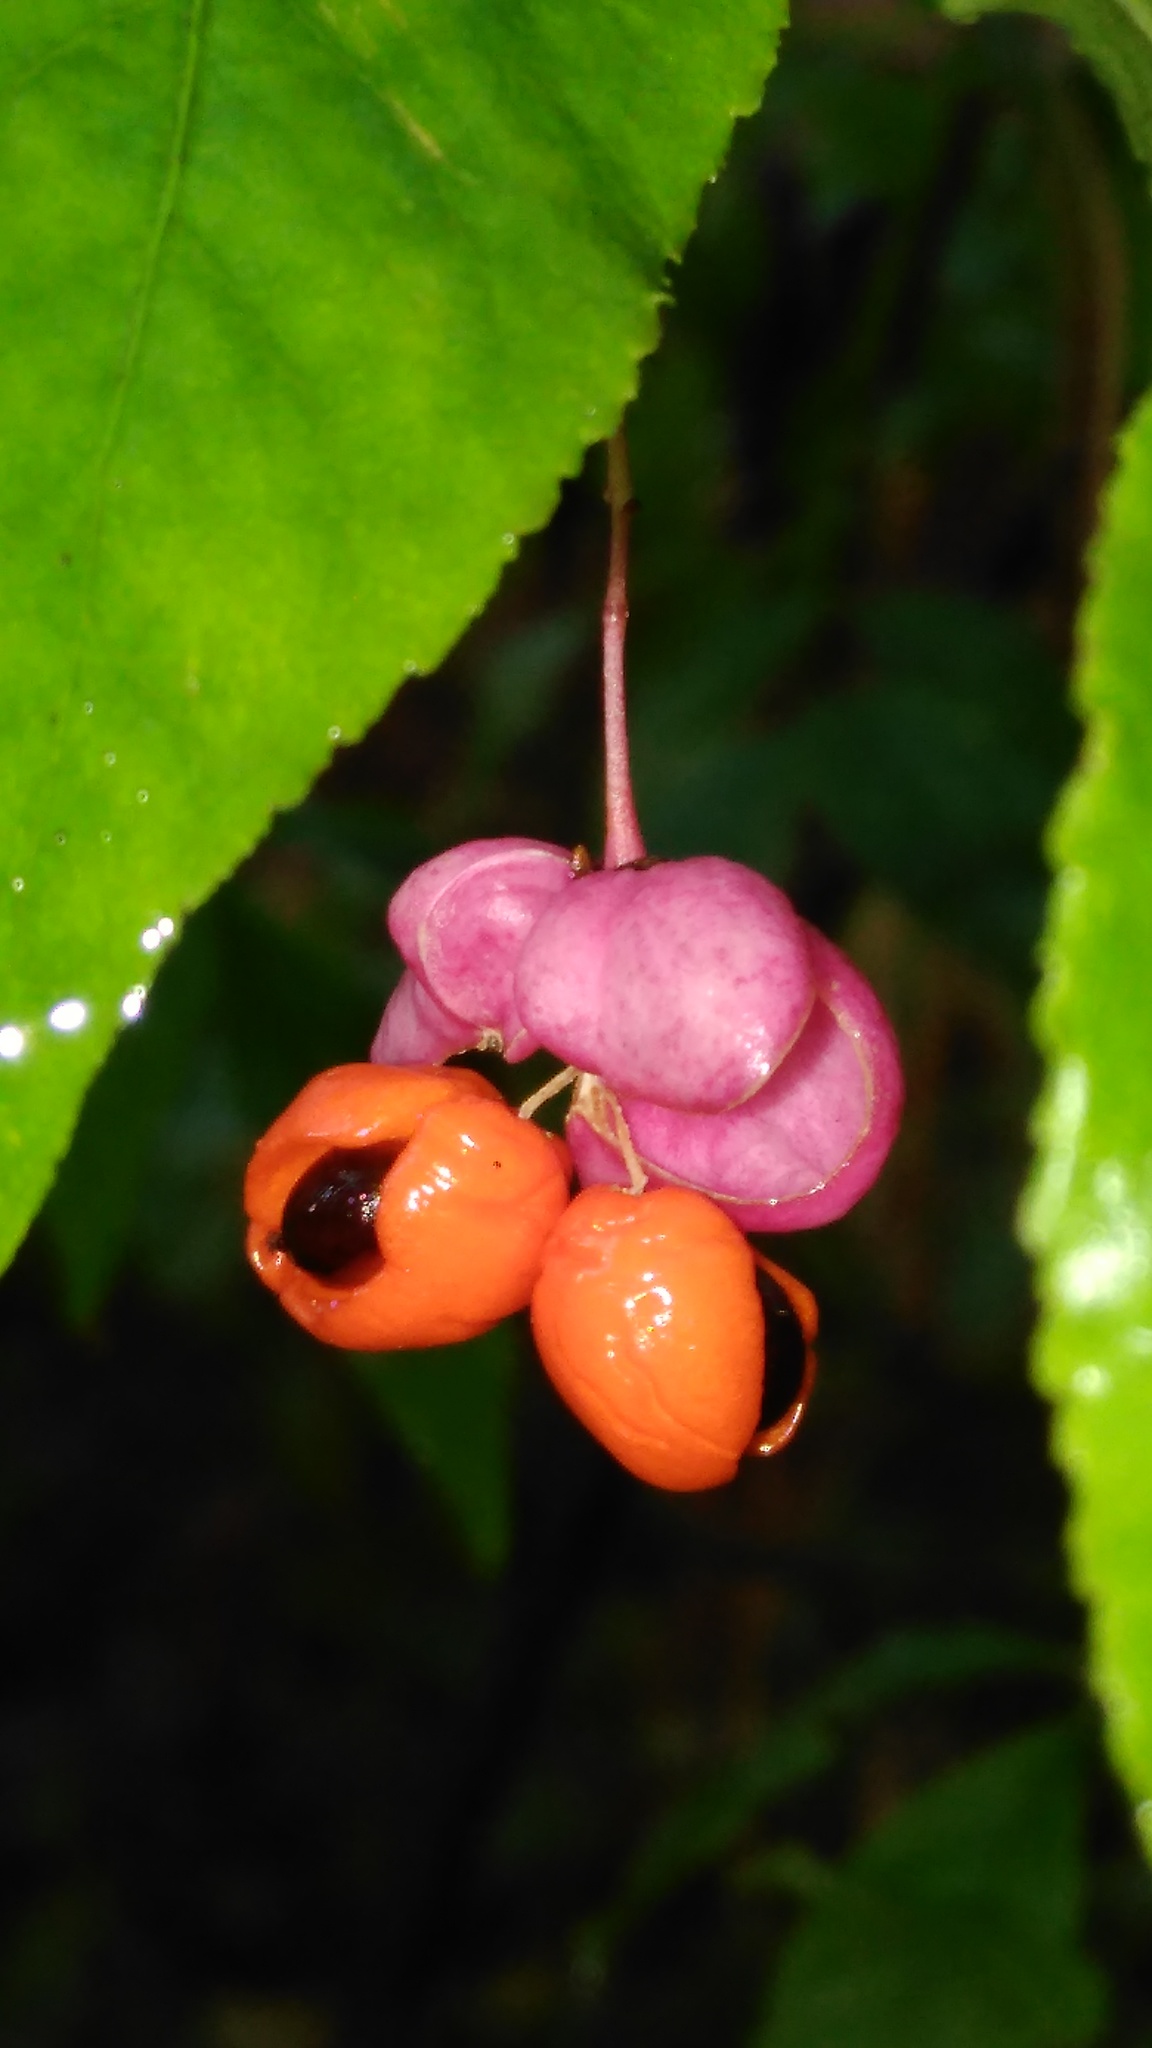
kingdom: Plantae
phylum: Tracheophyta
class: Magnoliopsida
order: Celastrales
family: Celastraceae
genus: Euonymus
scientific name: Euonymus verrucosus
